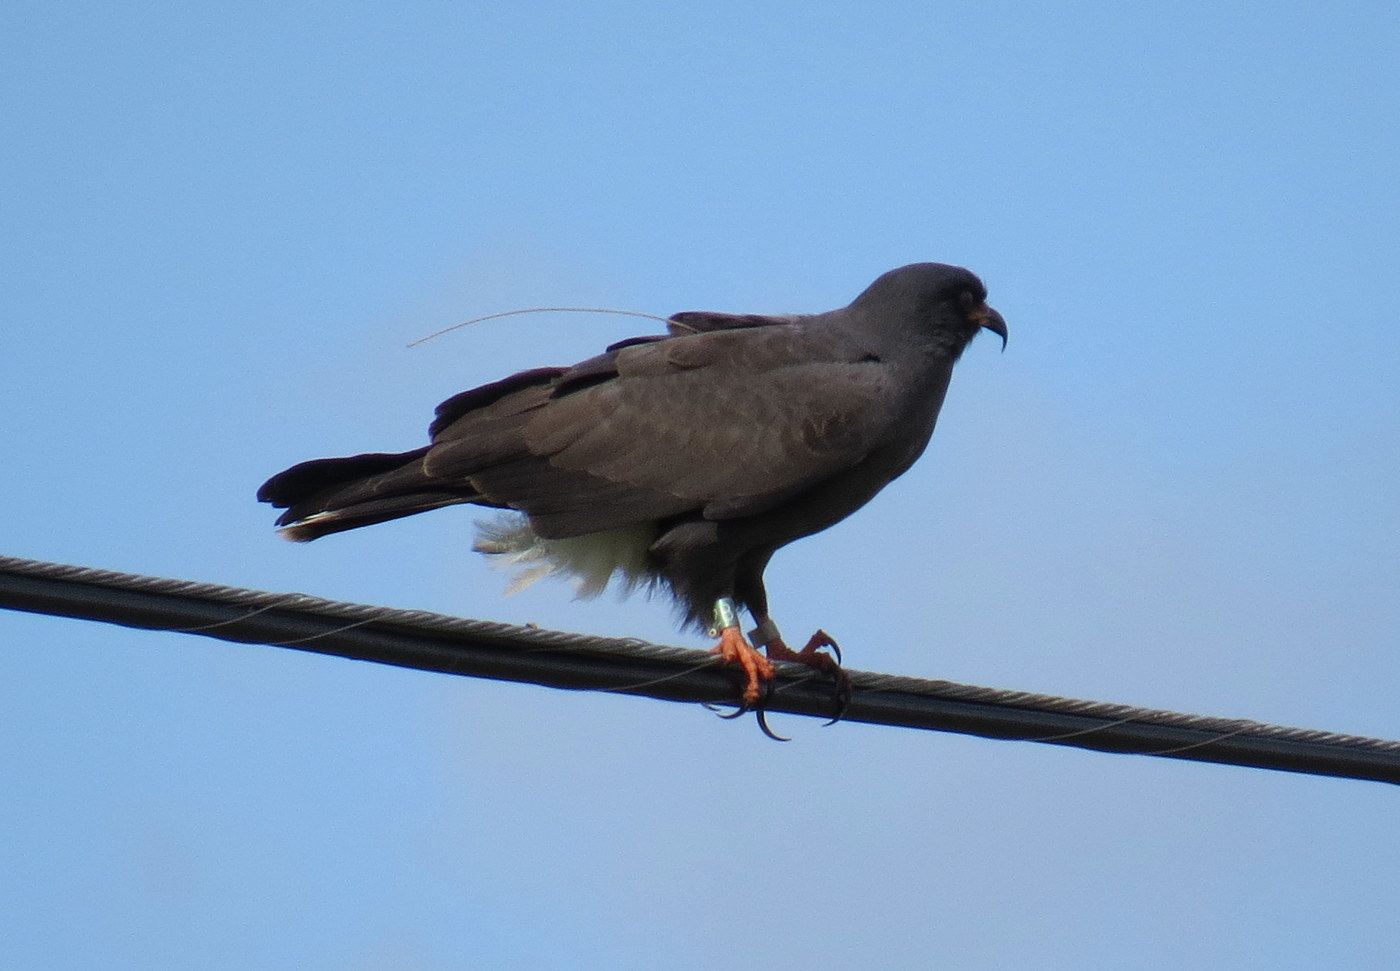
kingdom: Animalia
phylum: Chordata
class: Aves
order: Accipitriformes
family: Accipitridae
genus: Rostrhamus
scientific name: Rostrhamus sociabilis
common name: Snail kite
